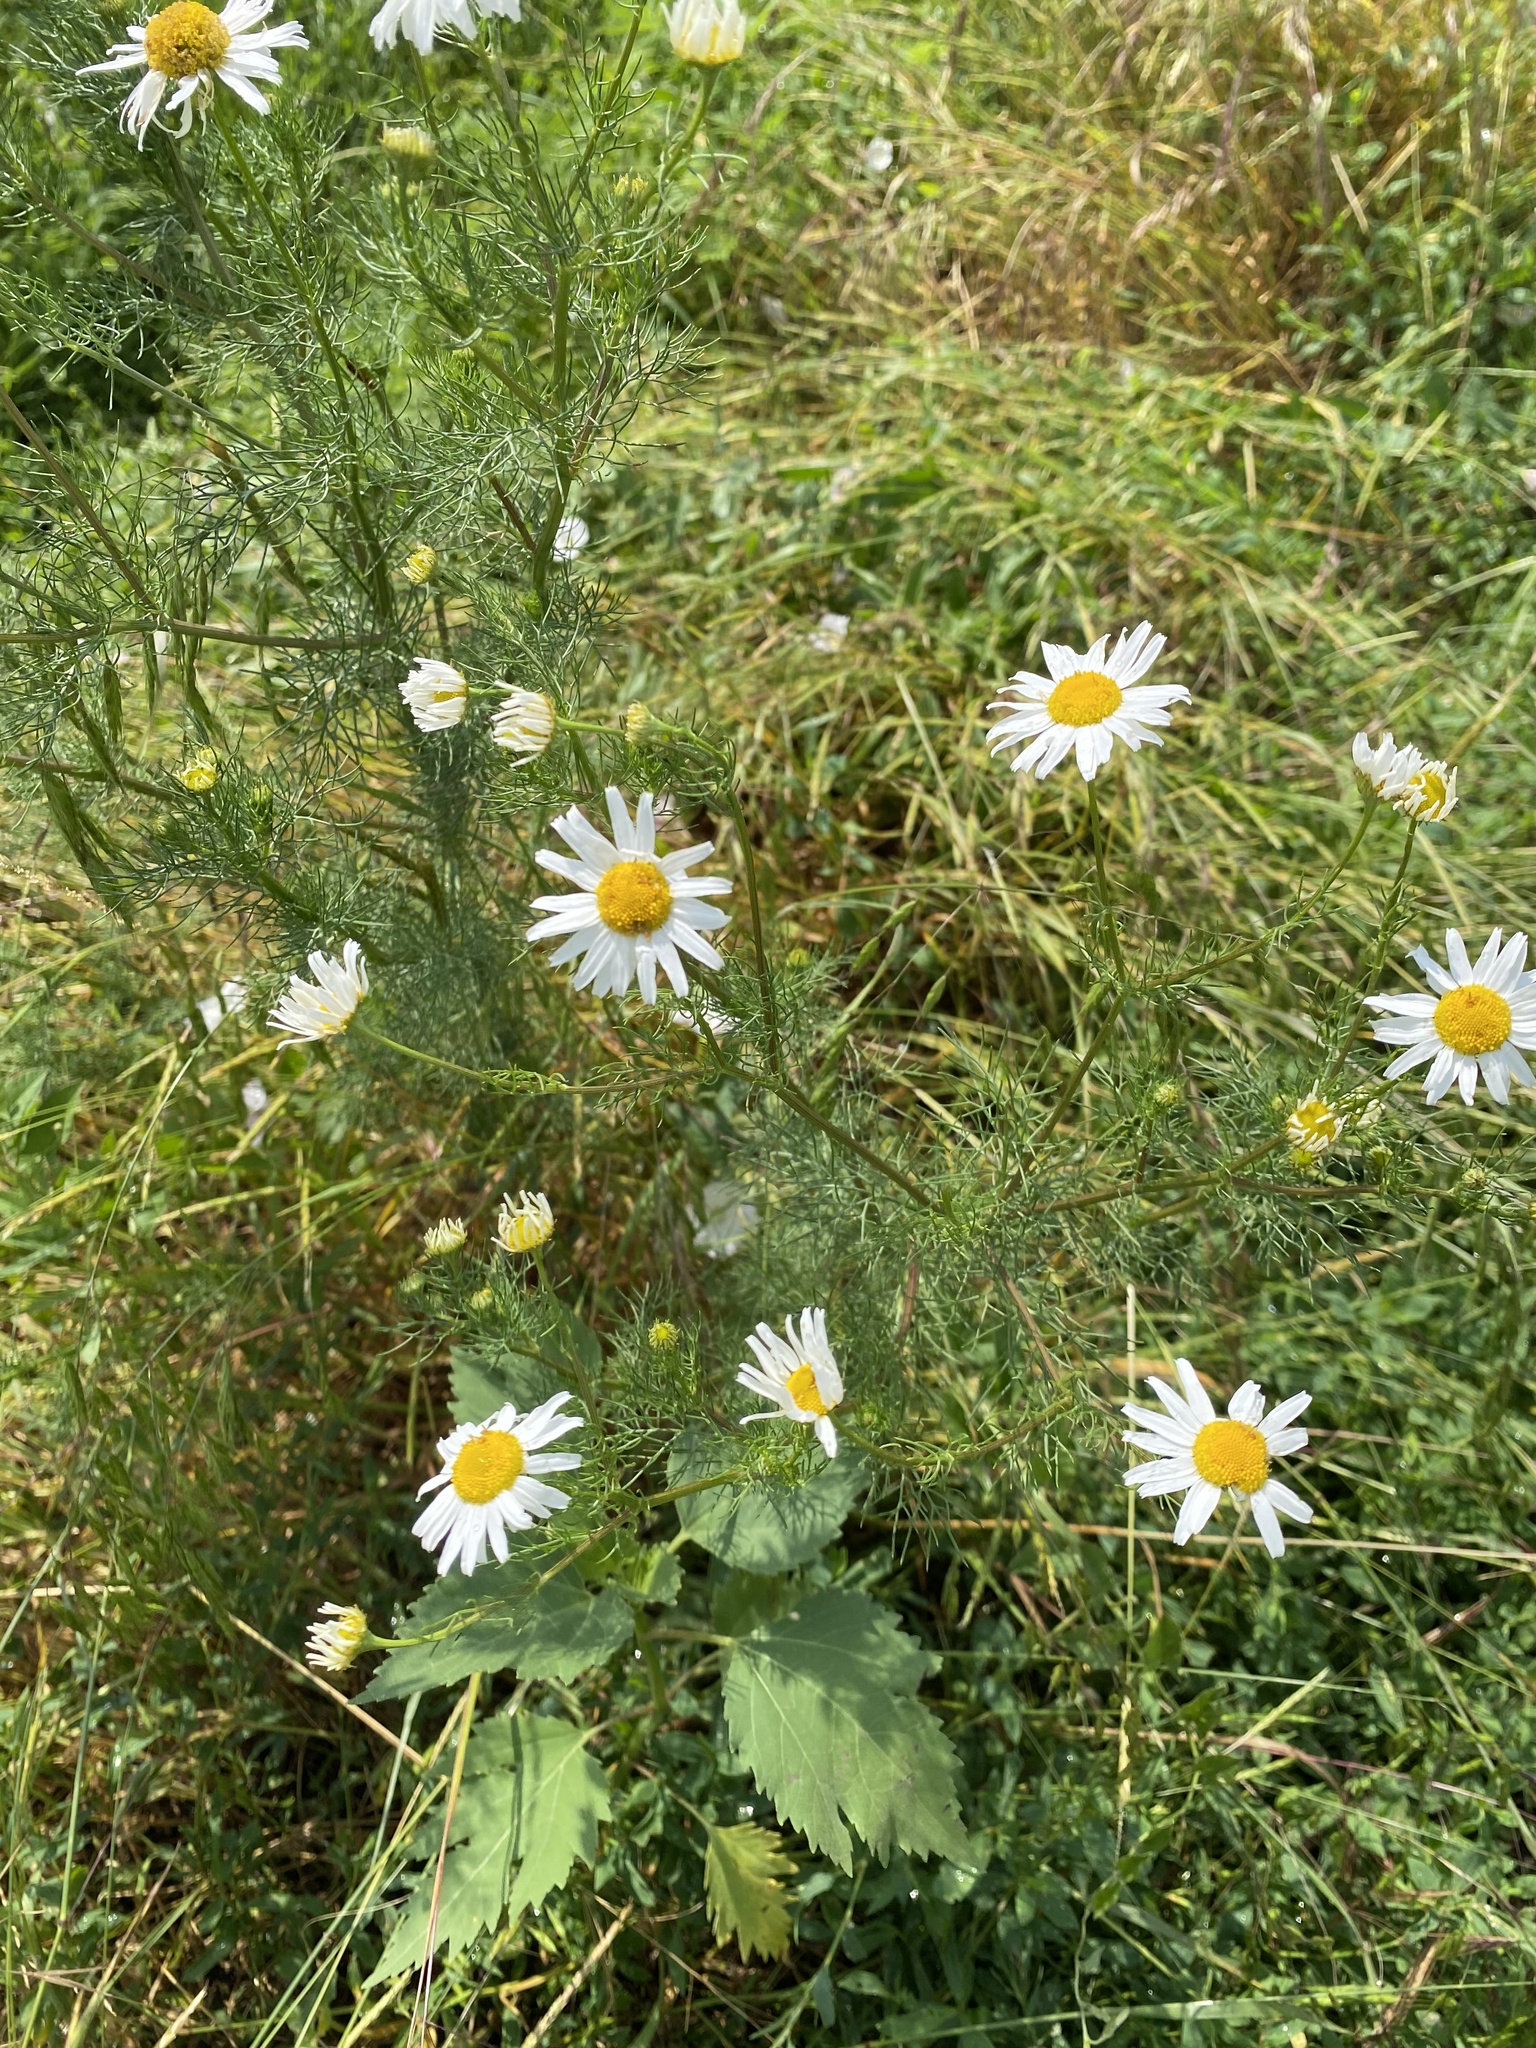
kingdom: Plantae
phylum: Tracheophyta
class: Magnoliopsida
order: Asterales
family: Asteraceae
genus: Tripleurospermum
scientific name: Tripleurospermum inodorum
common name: Scentless mayweed
